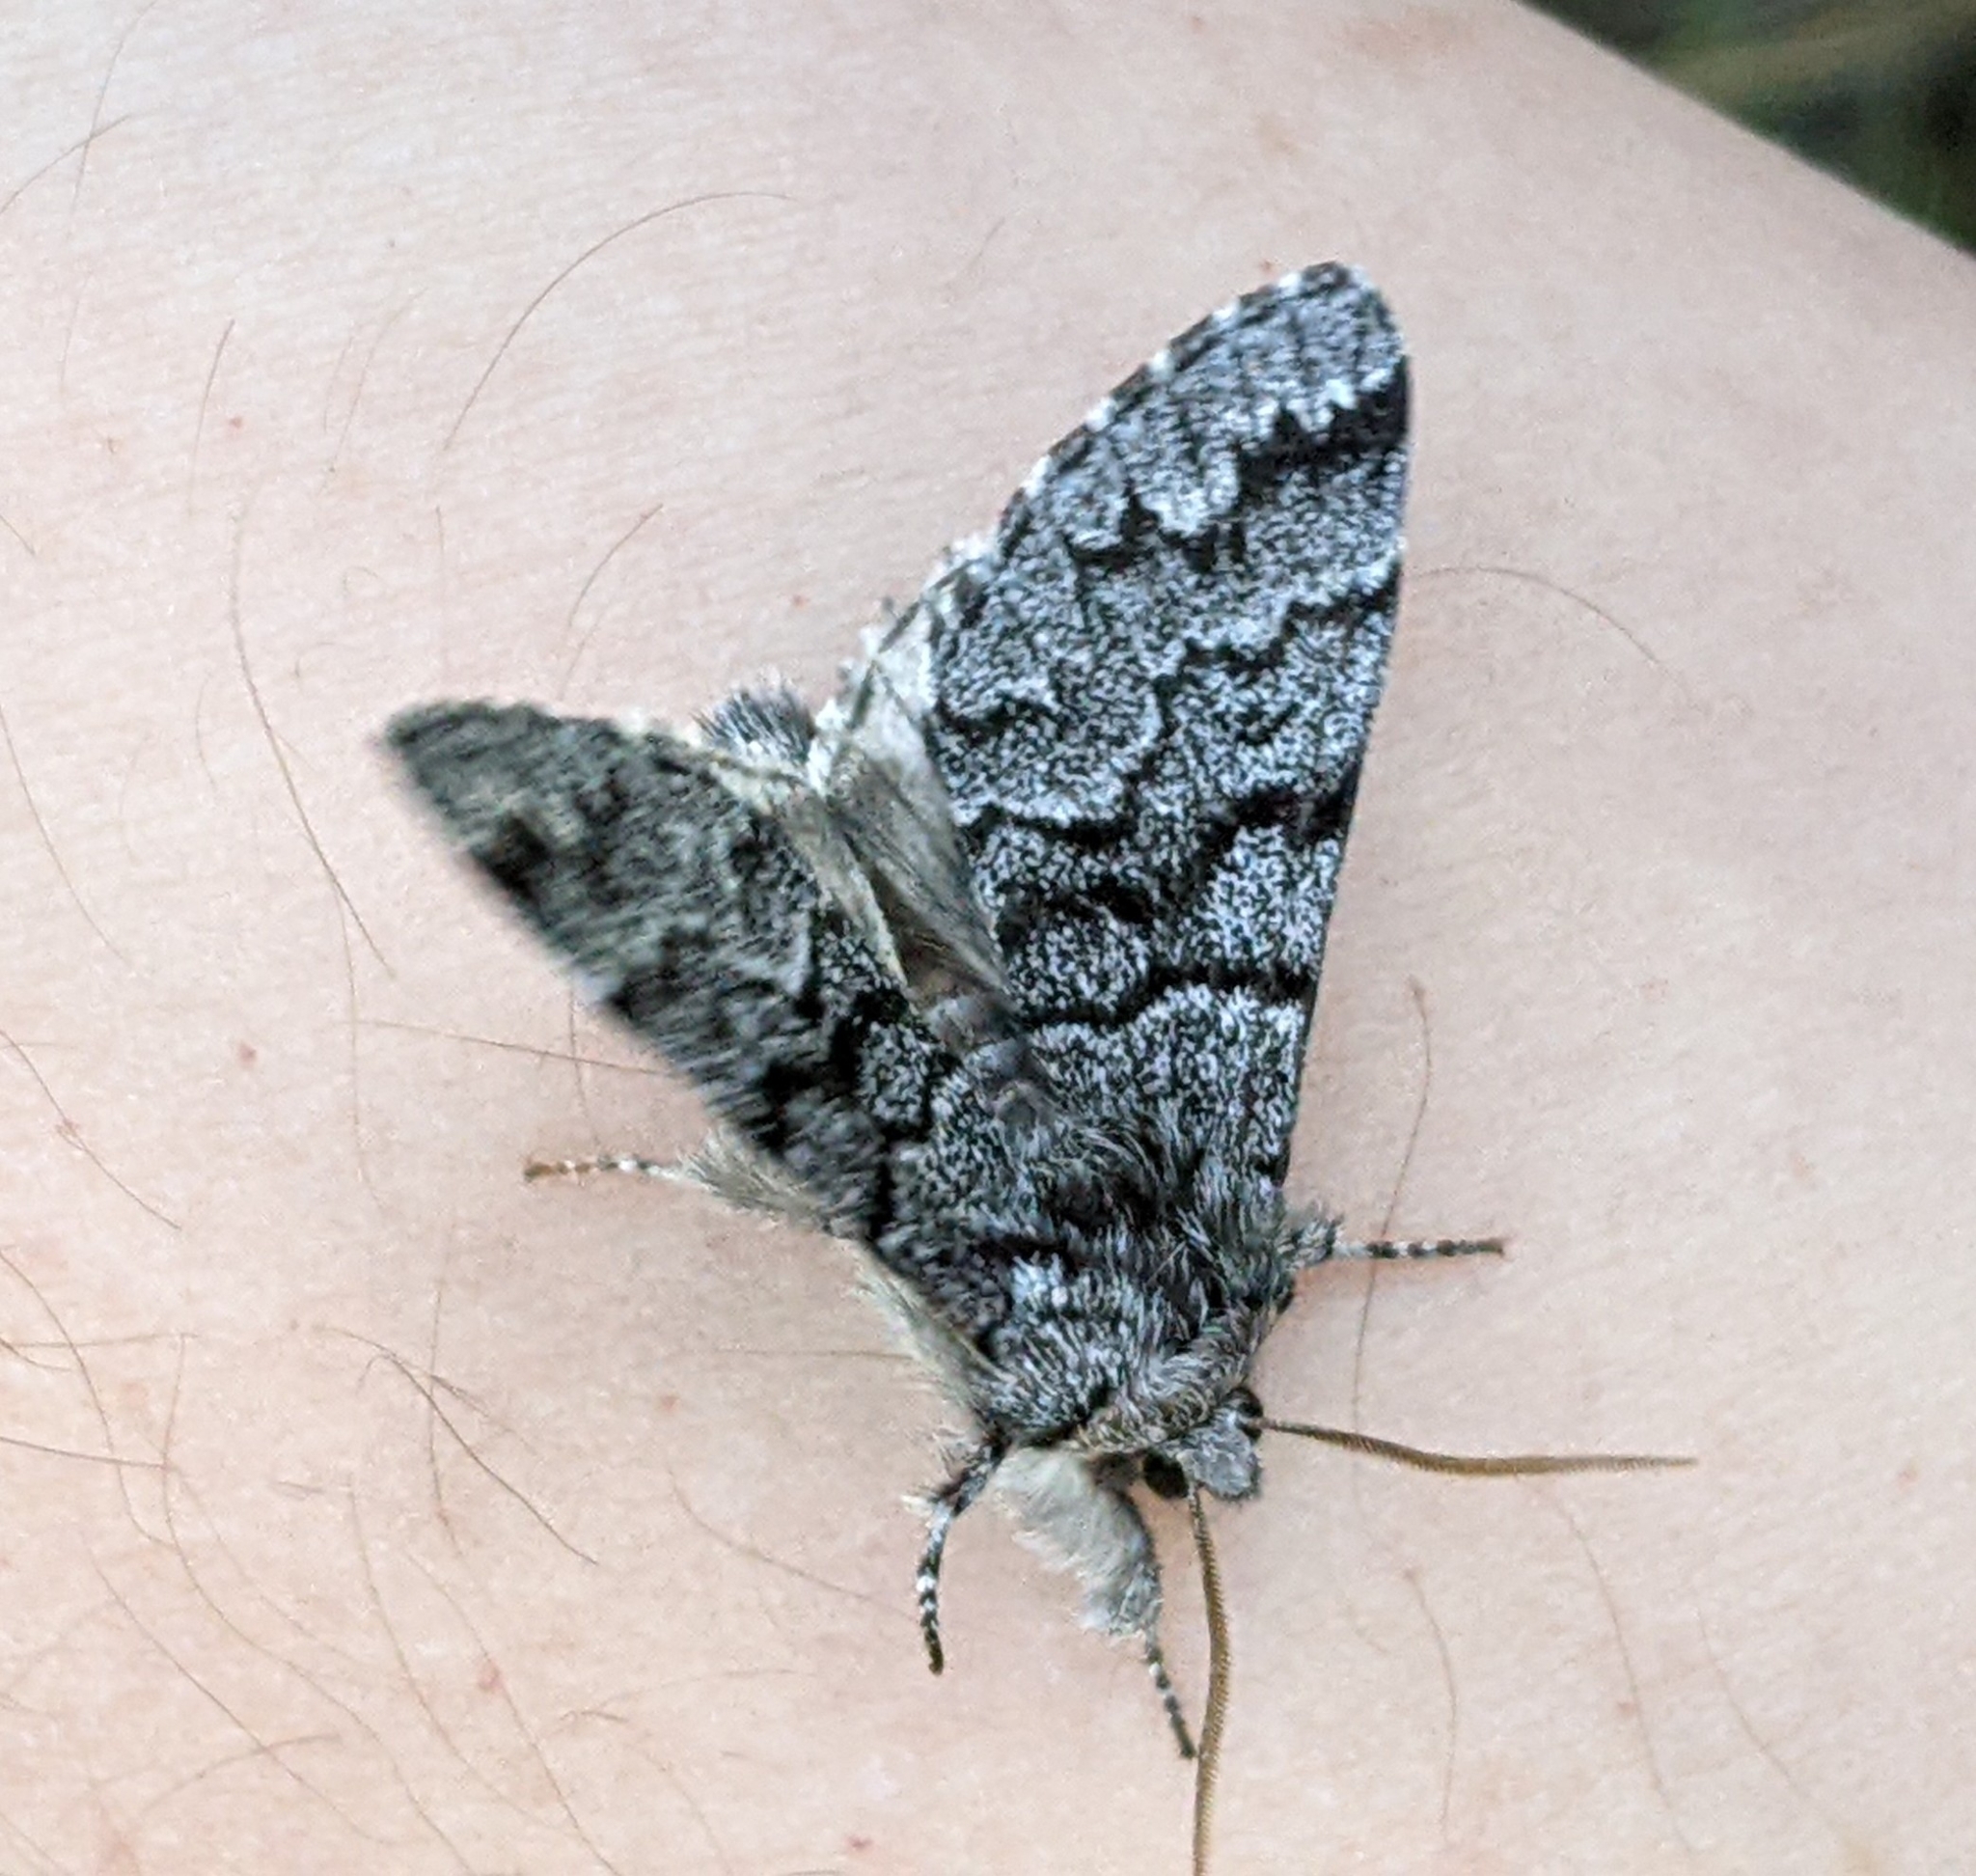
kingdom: Animalia
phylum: Arthropoda
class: Insecta
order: Lepidoptera
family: Noctuidae
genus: Panthea
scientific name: Panthea virginarius
